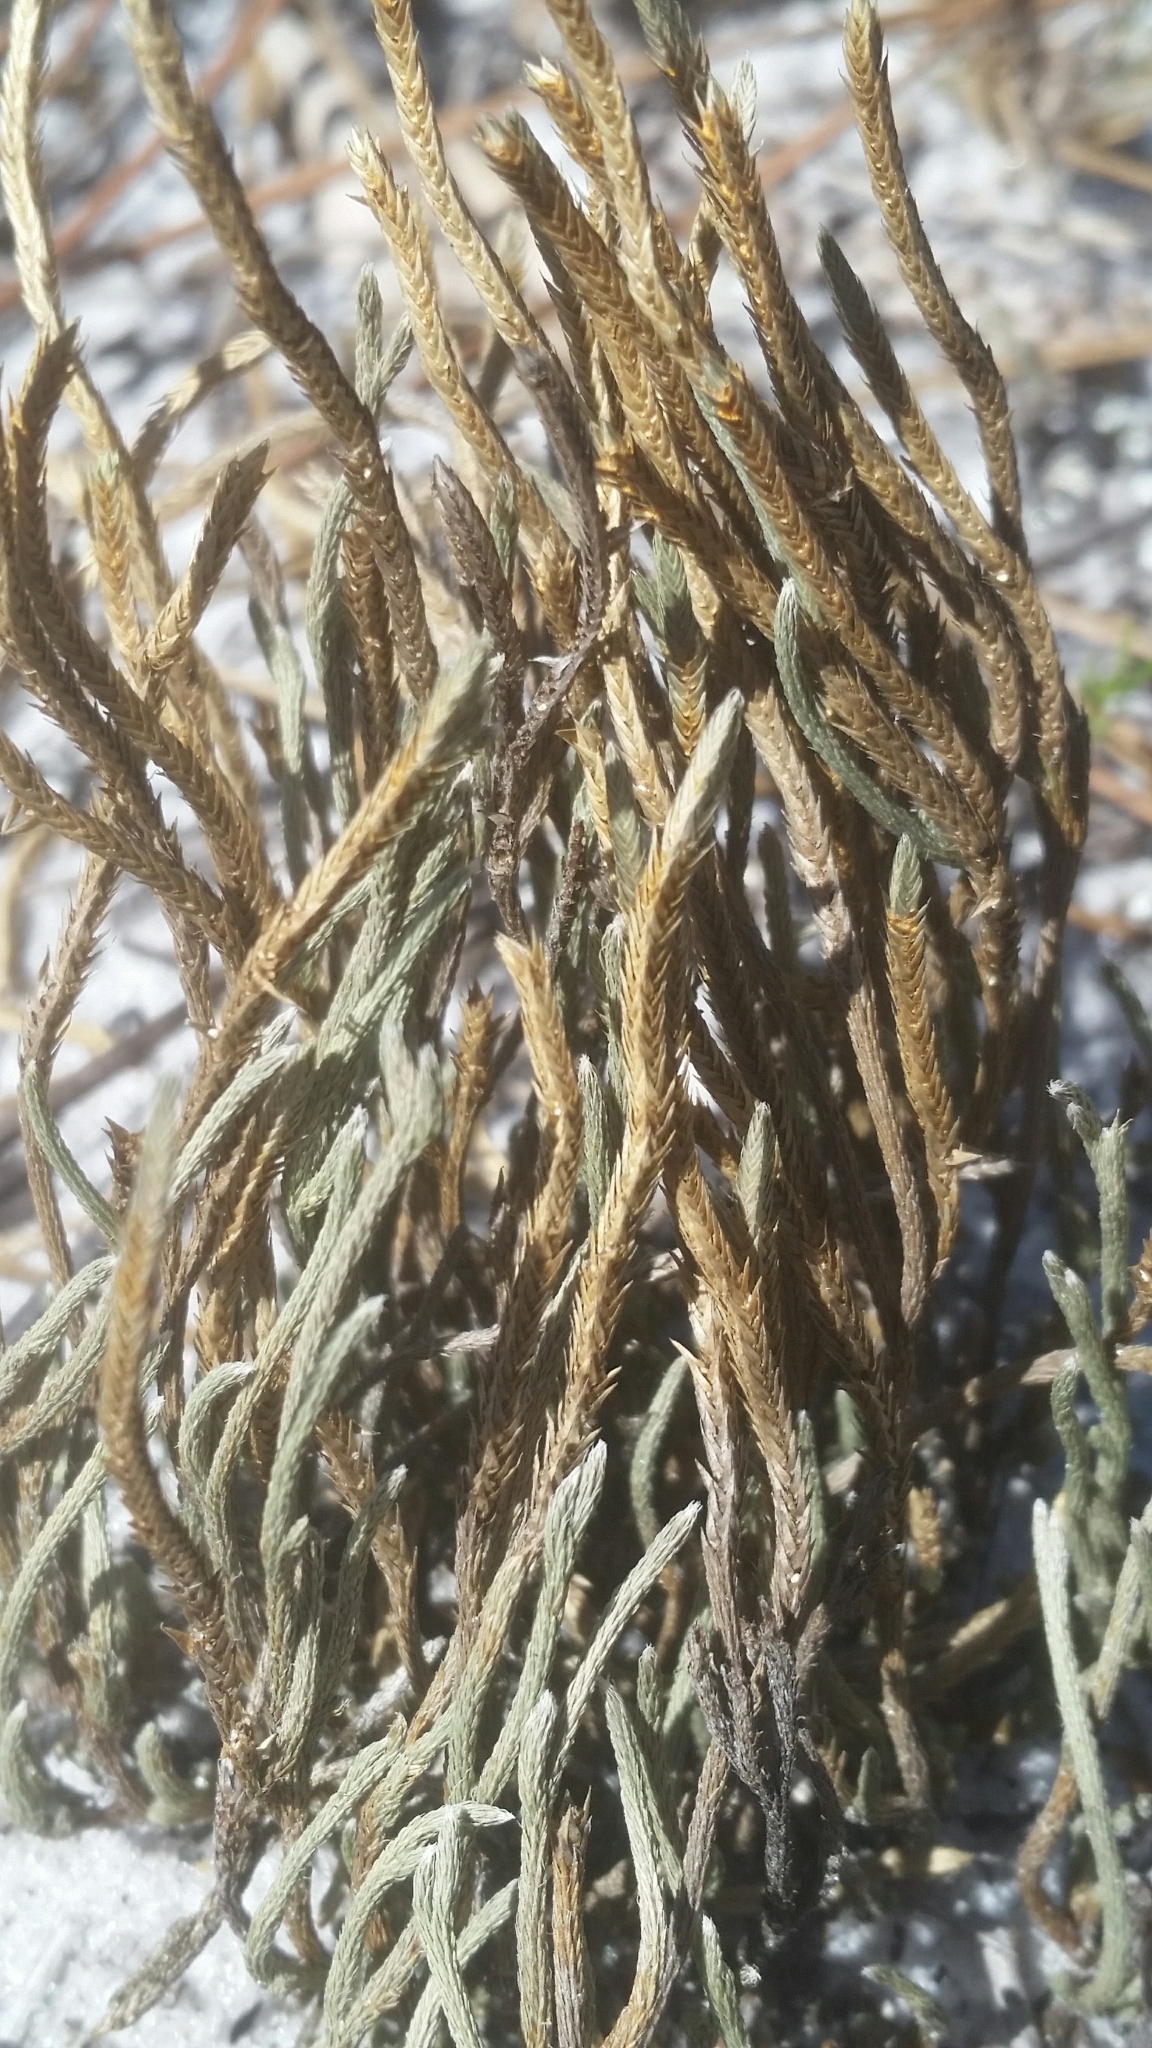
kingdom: Plantae
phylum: Tracheophyta
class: Lycopodiopsida
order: Selaginellales
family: Selaginellaceae
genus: Selaginella
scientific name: Selaginella arenicola
